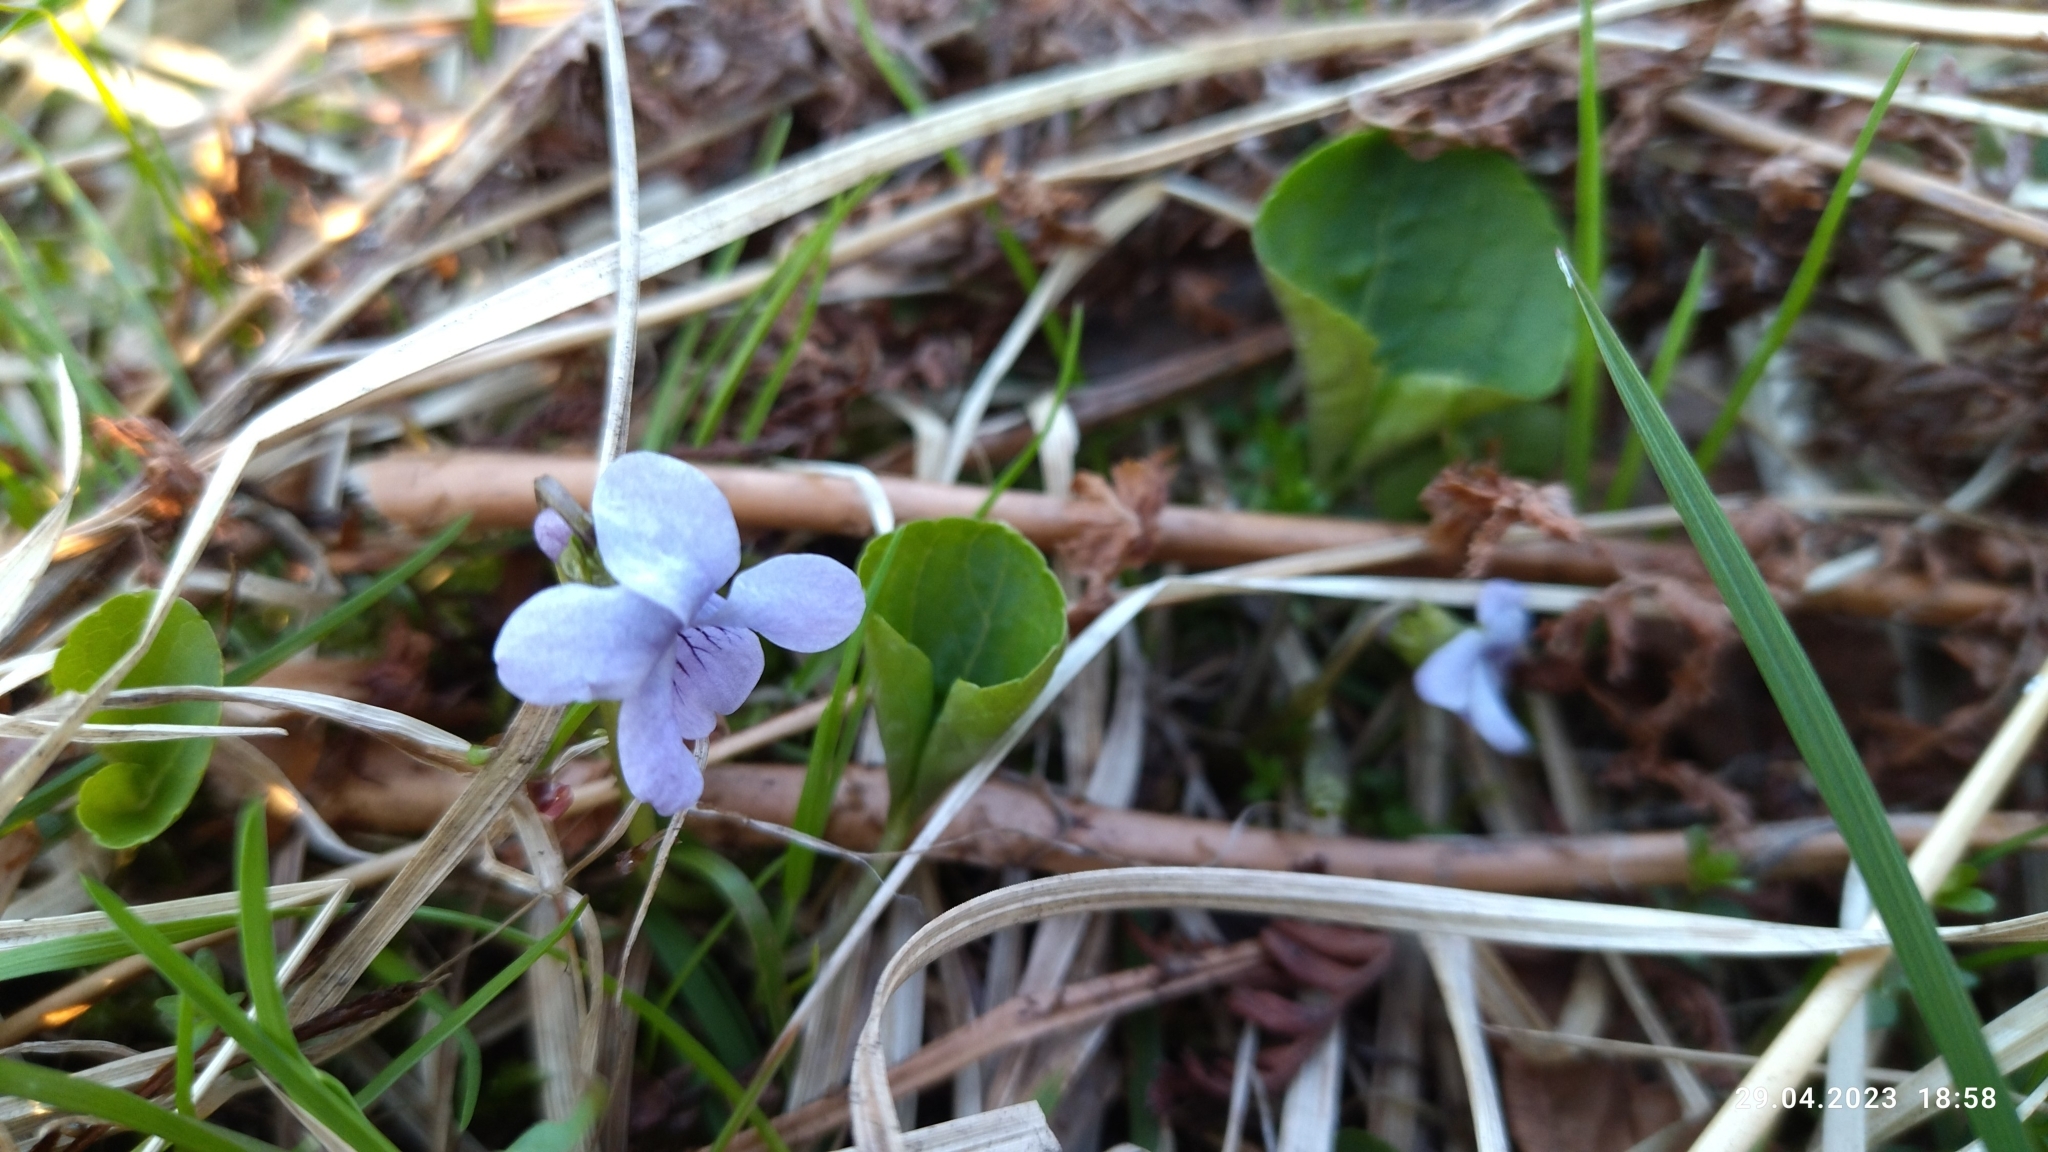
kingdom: Plantae
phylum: Tracheophyta
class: Magnoliopsida
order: Malpighiales
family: Violaceae
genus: Viola
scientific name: Viola palustris
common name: Marsh violet
